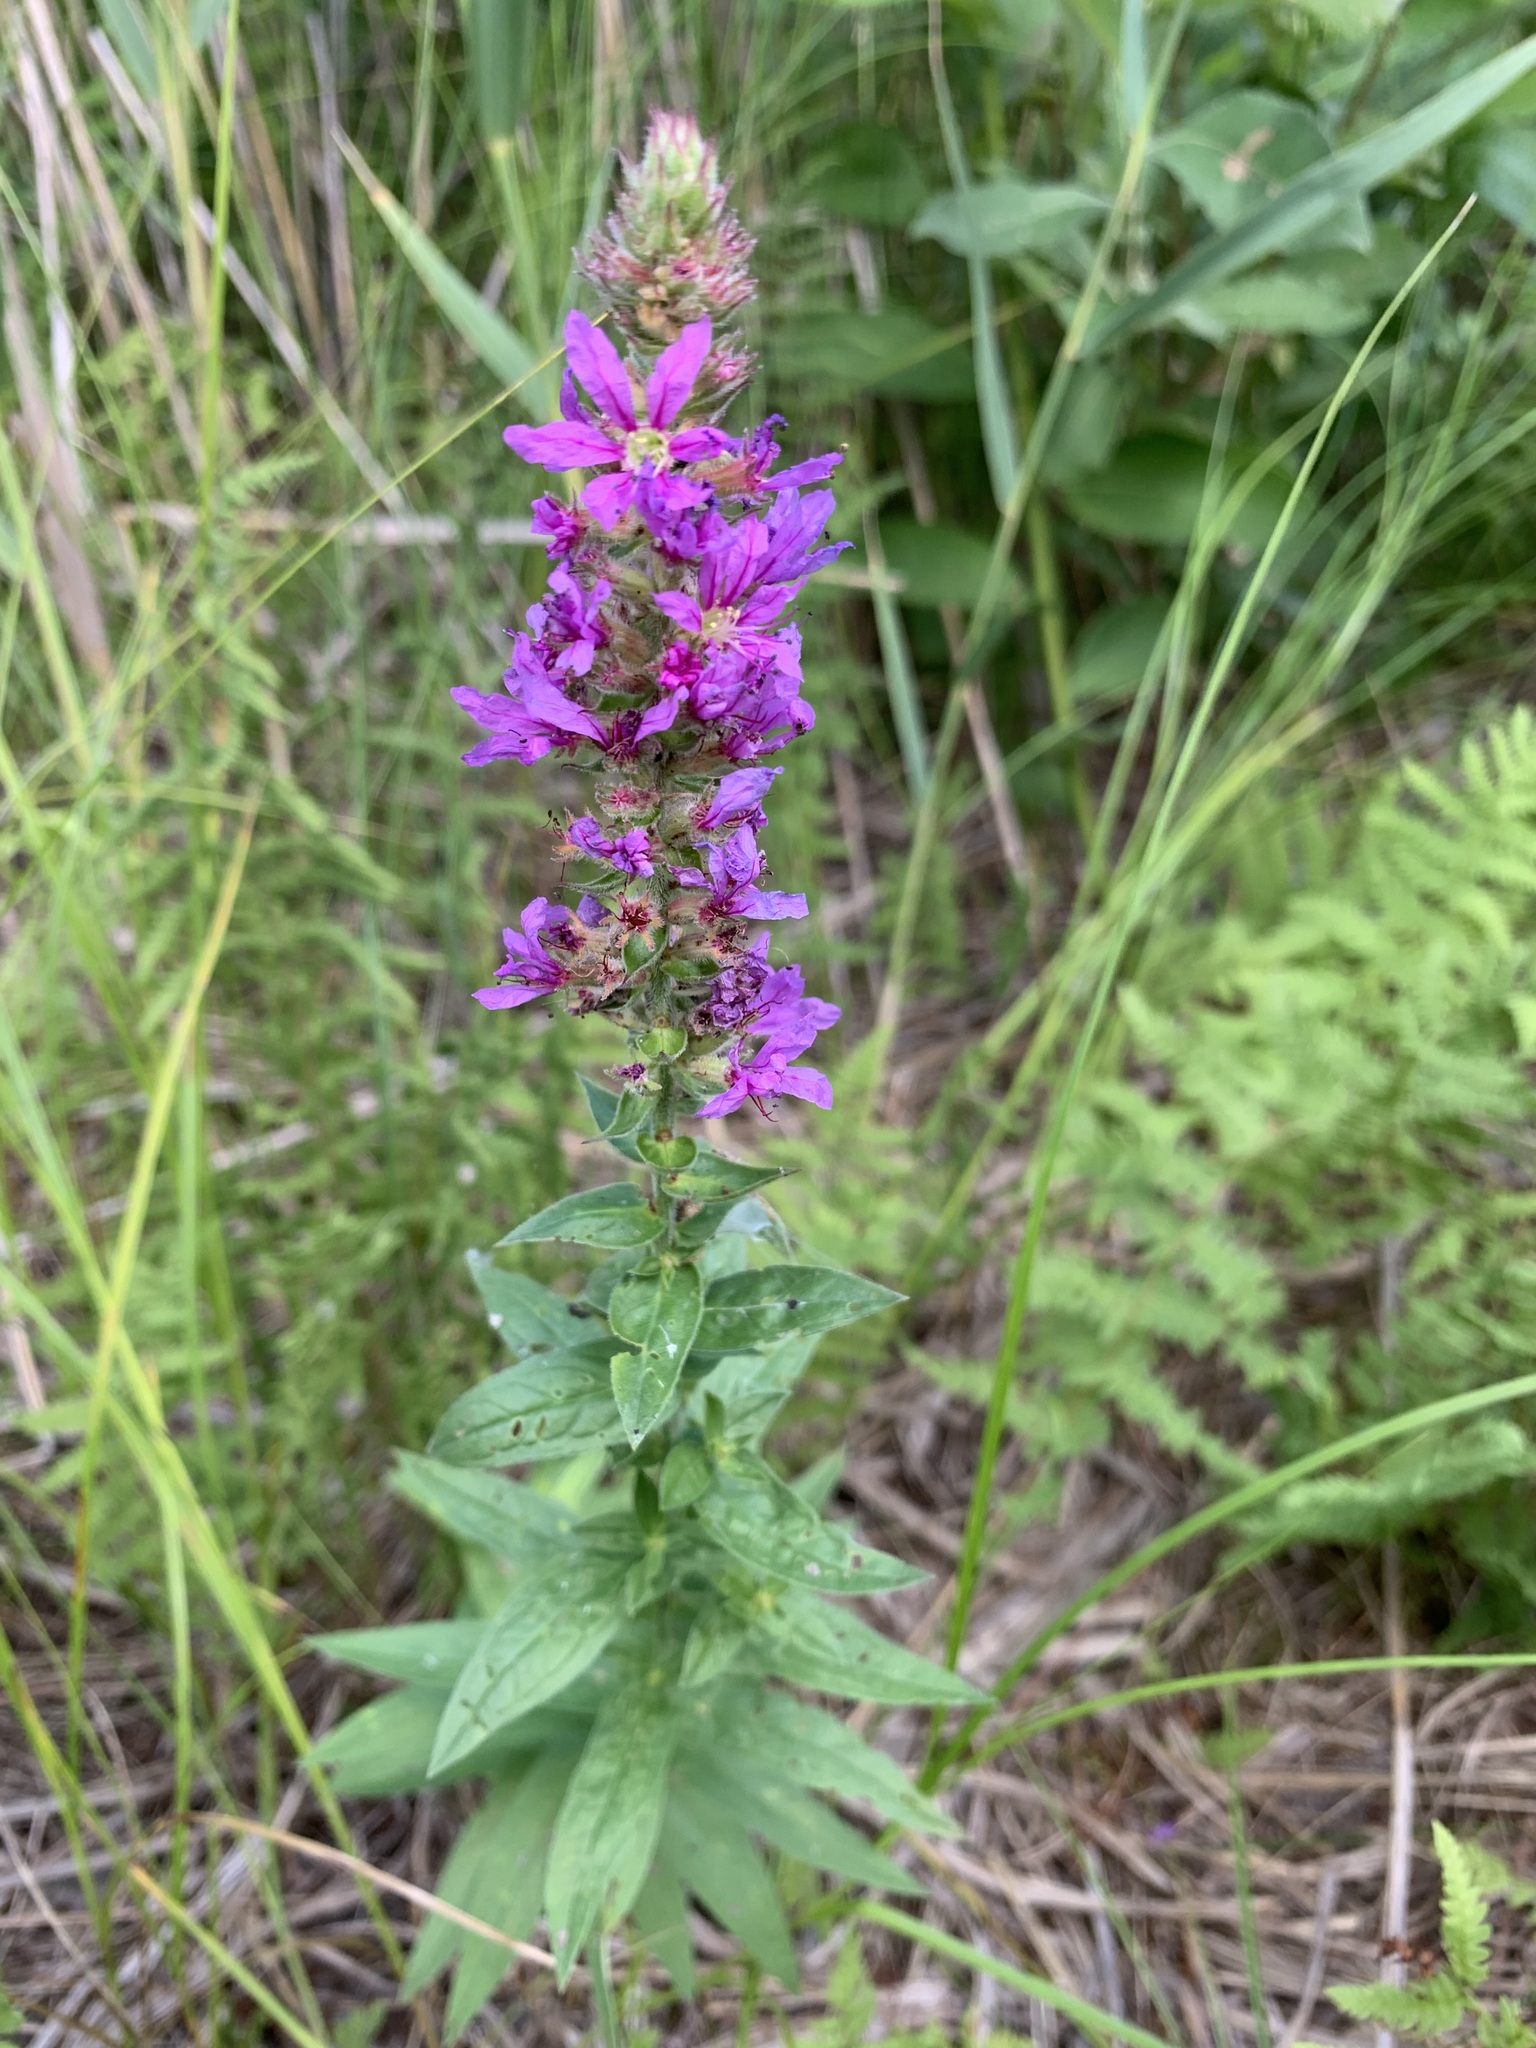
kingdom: Plantae
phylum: Tracheophyta
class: Magnoliopsida
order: Myrtales
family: Lythraceae
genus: Lythrum
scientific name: Lythrum salicaria
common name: Purple loosestrife
